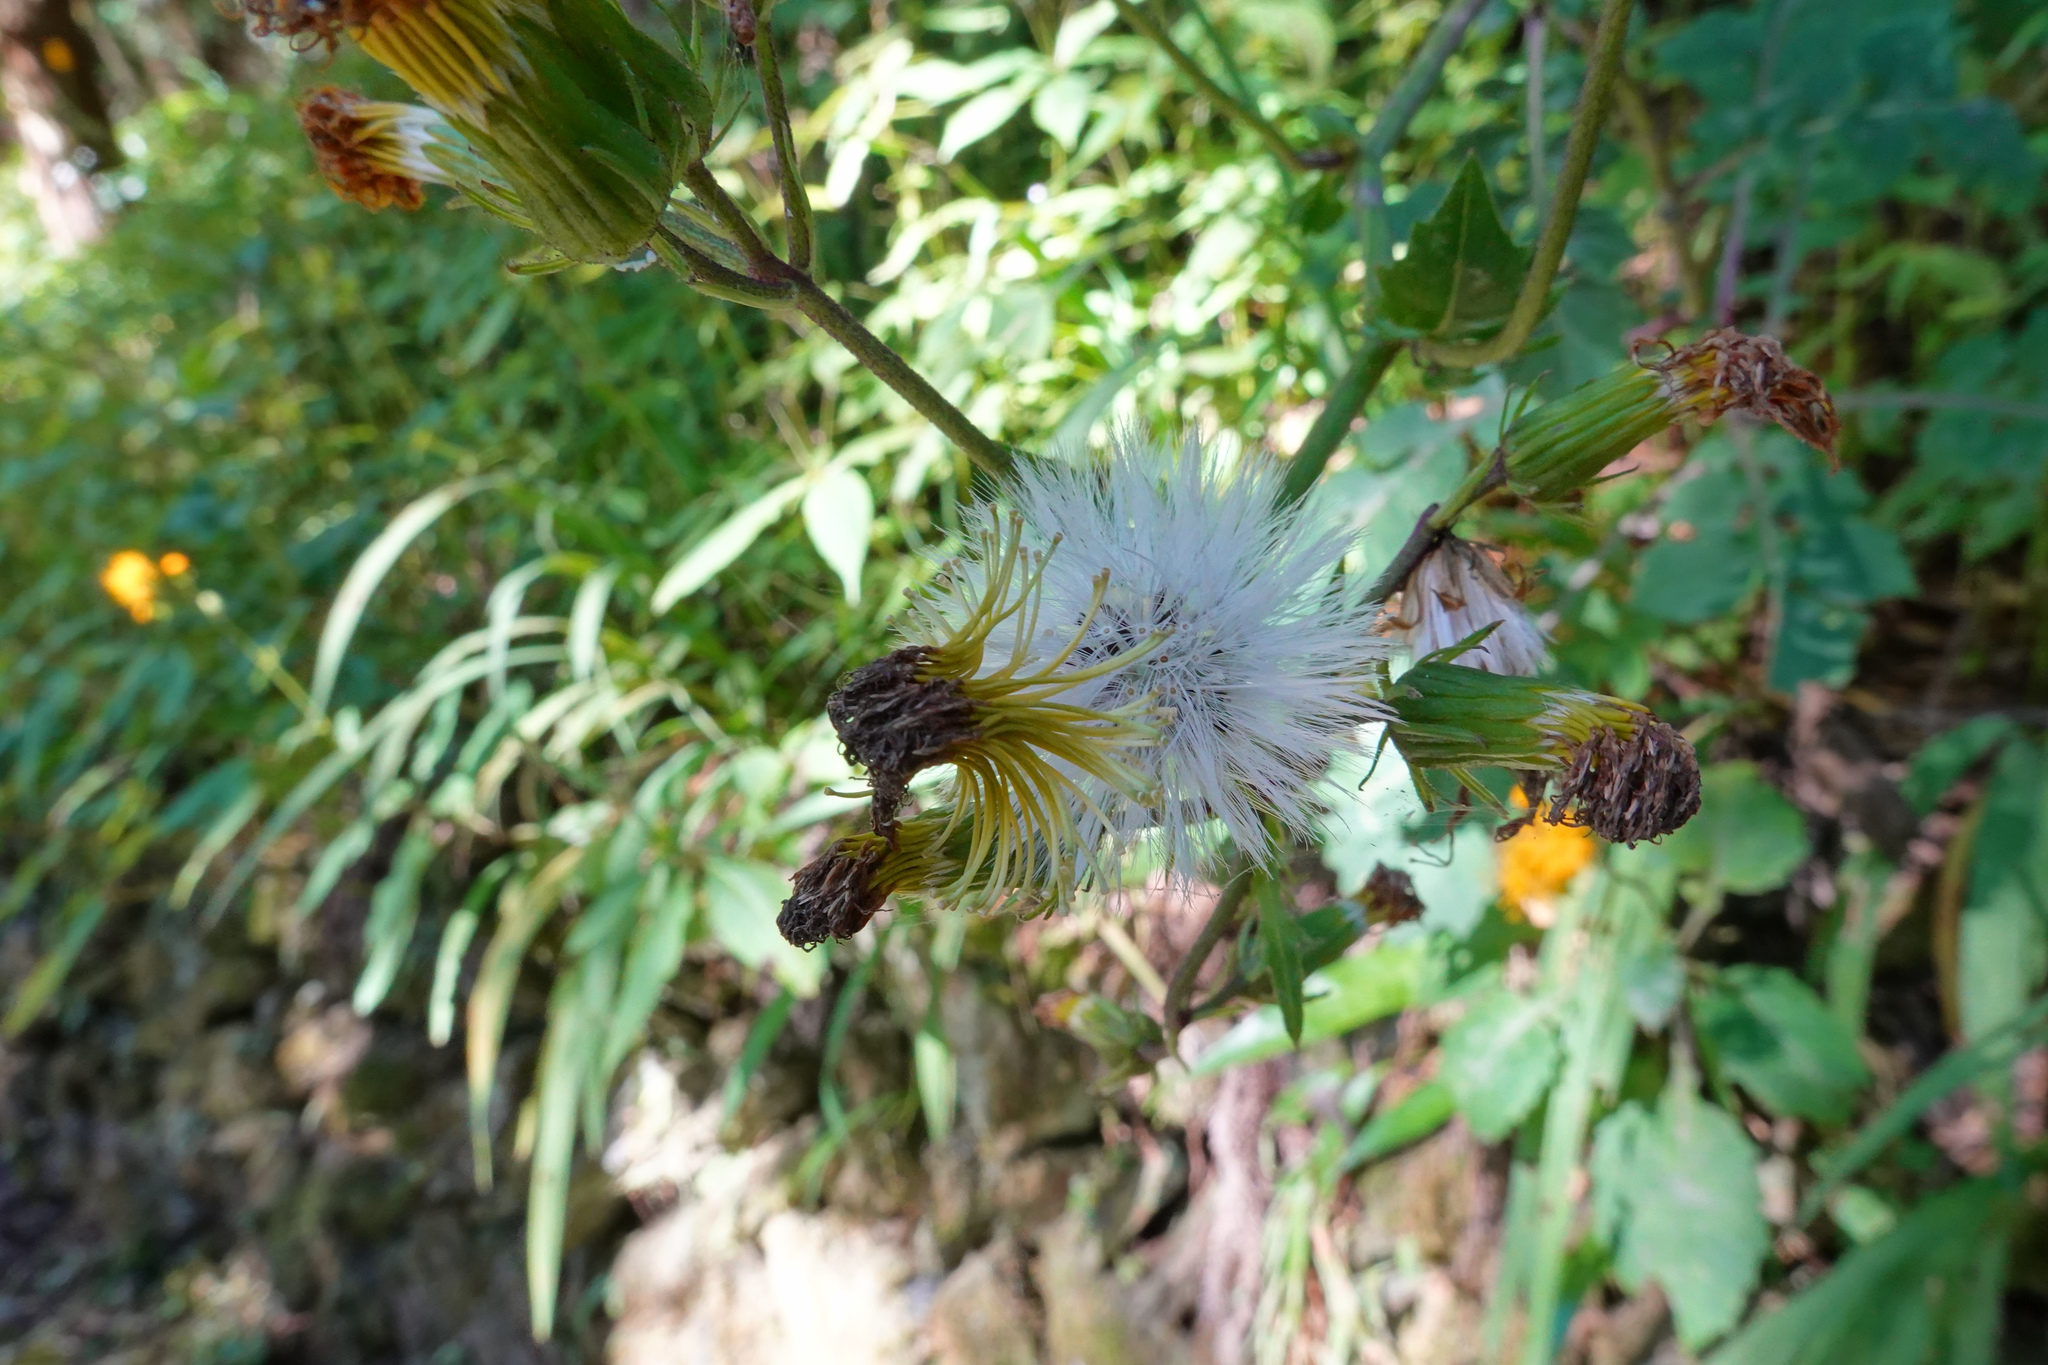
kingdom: Plantae
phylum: Tracheophyta
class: Magnoliopsida
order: Asterales
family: Asteraceae
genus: Gynura
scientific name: Gynura japonica
